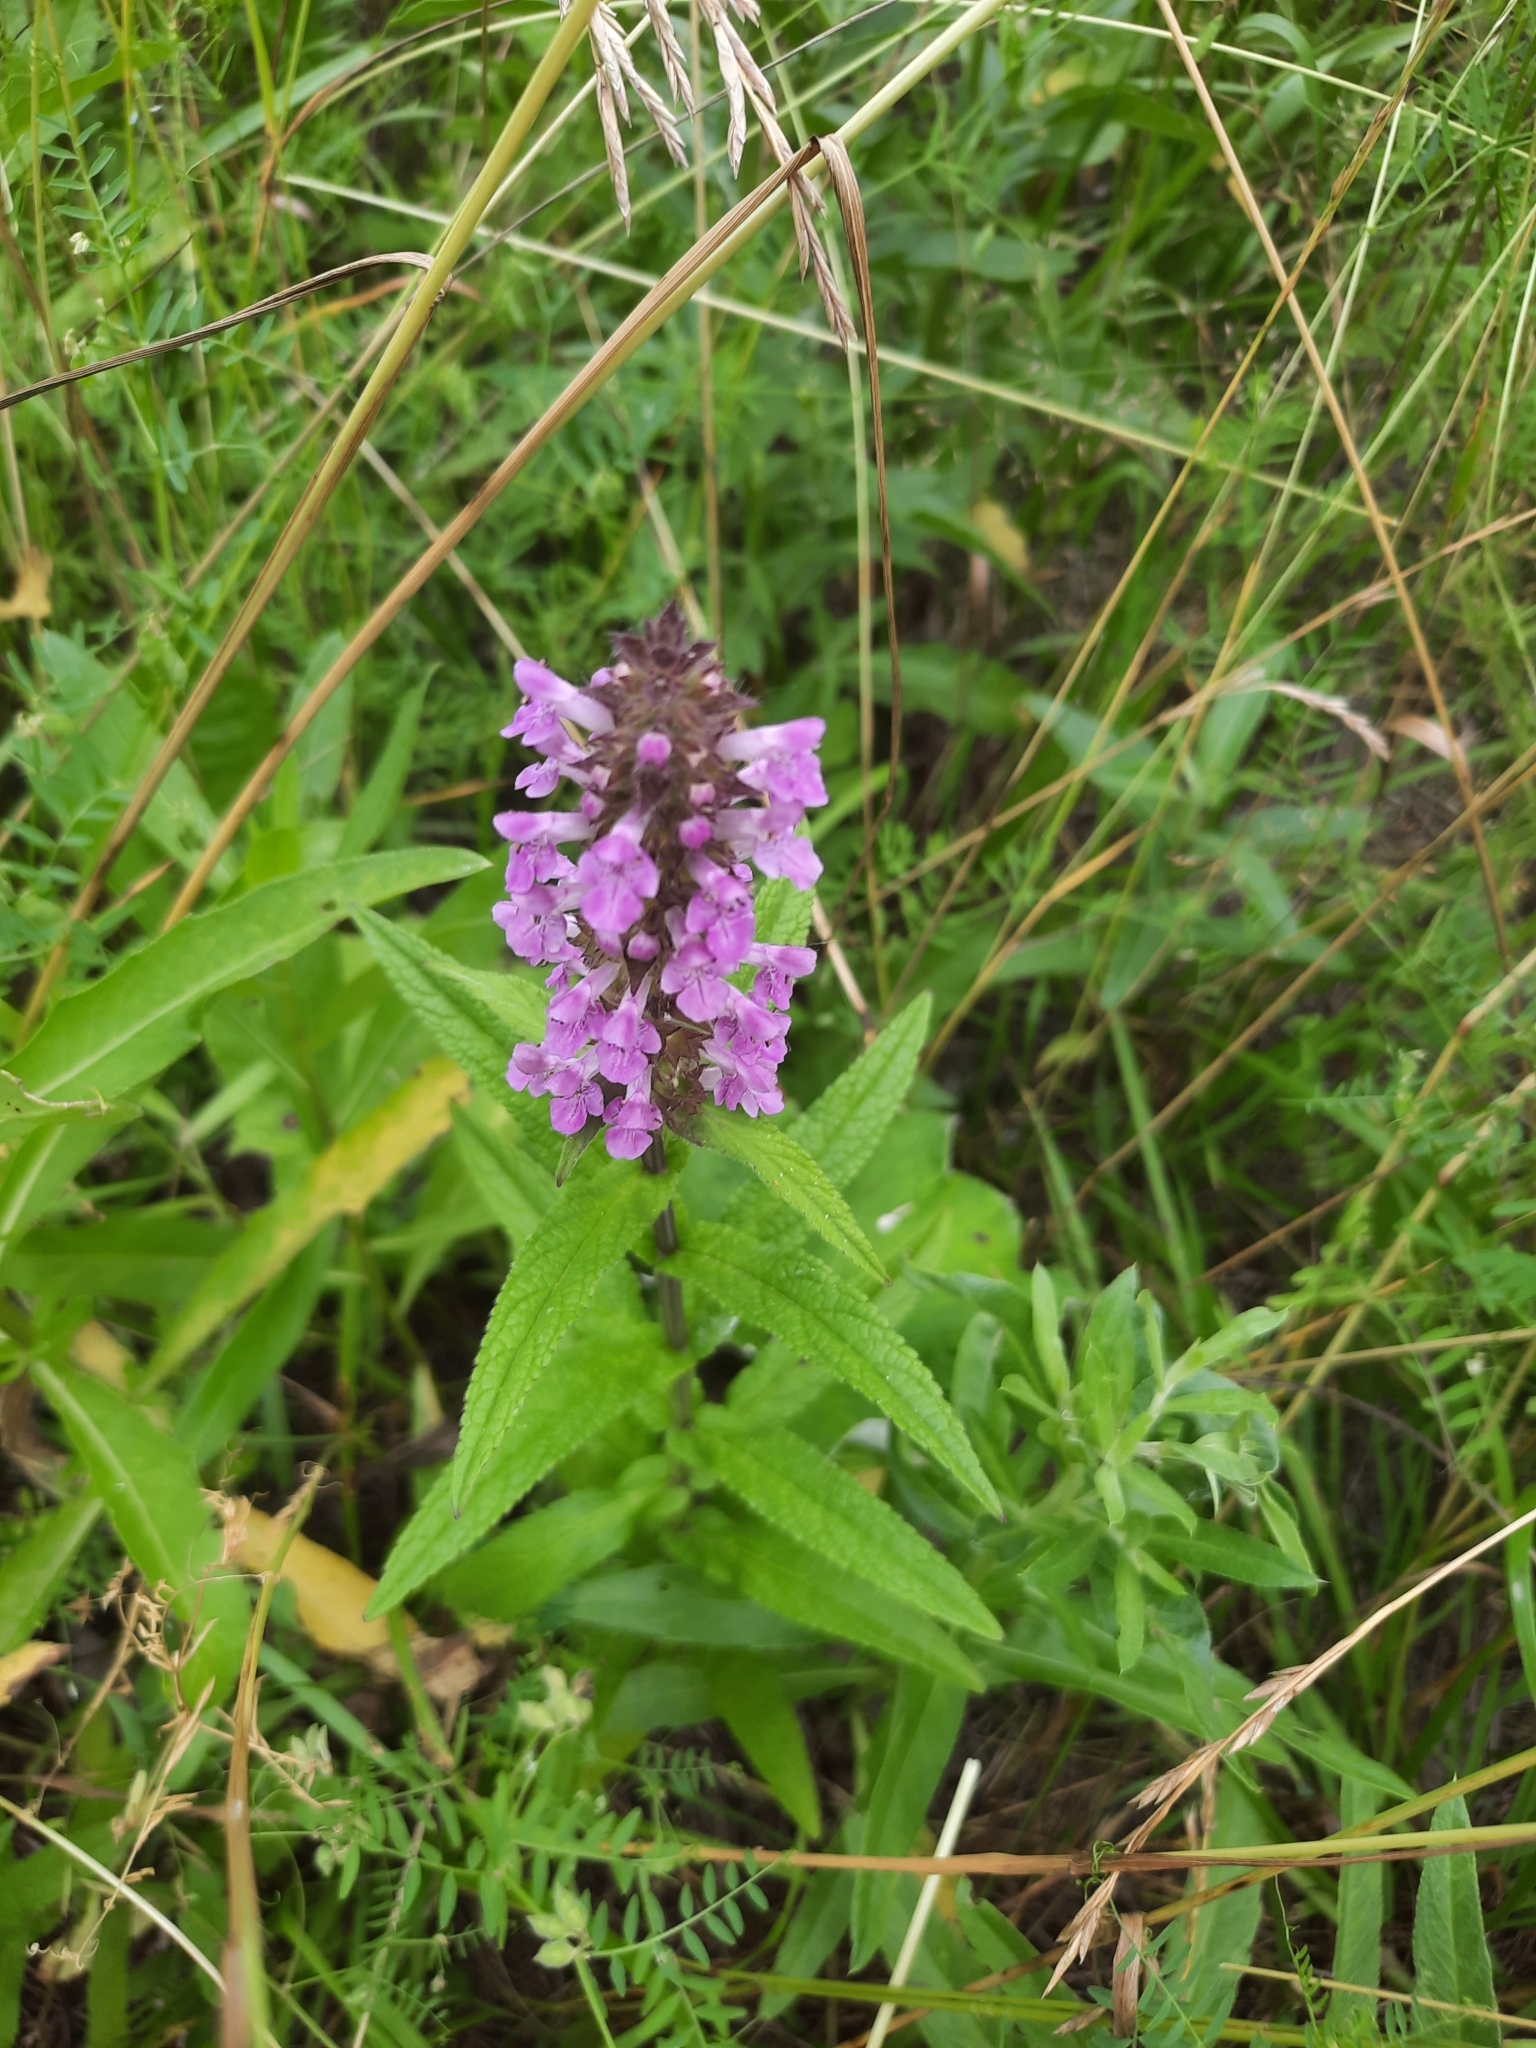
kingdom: Plantae
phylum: Tracheophyta
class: Magnoliopsida
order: Lamiales
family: Lamiaceae
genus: Stachys
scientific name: Stachys palustris
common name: Marsh woundwort
